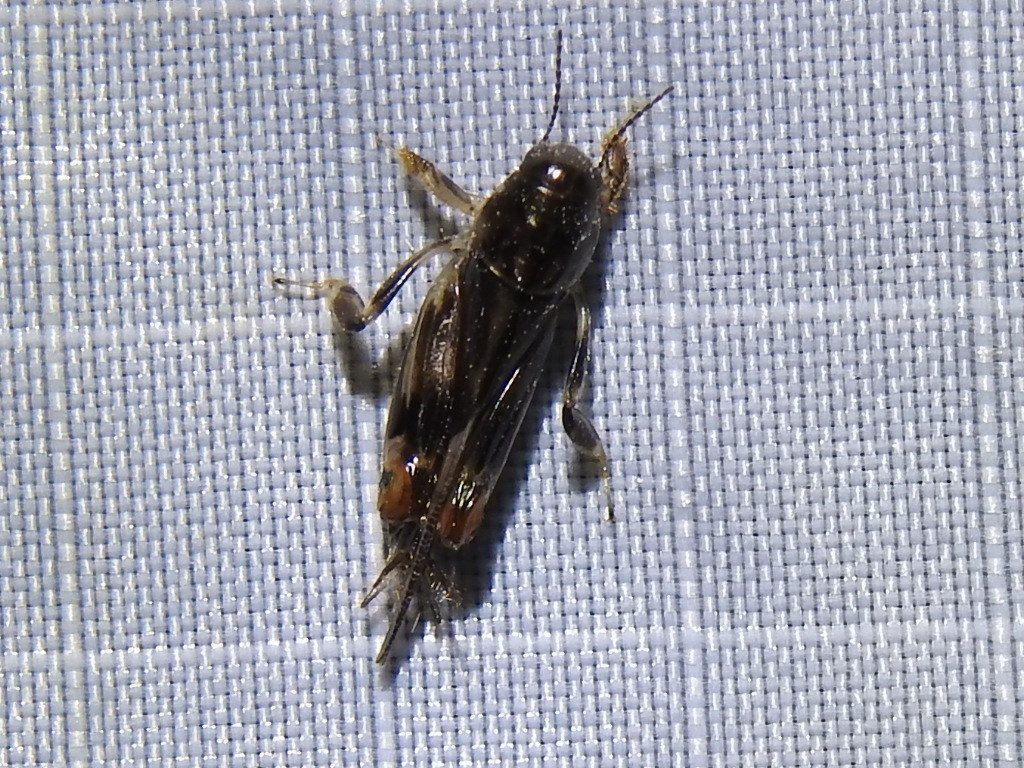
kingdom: Animalia
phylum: Arthropoda
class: Insecta
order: Orthoptera
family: Tridactylidae
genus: Neotridactylus
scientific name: Neotridactylus apicialis
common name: Larger pygmy locust
